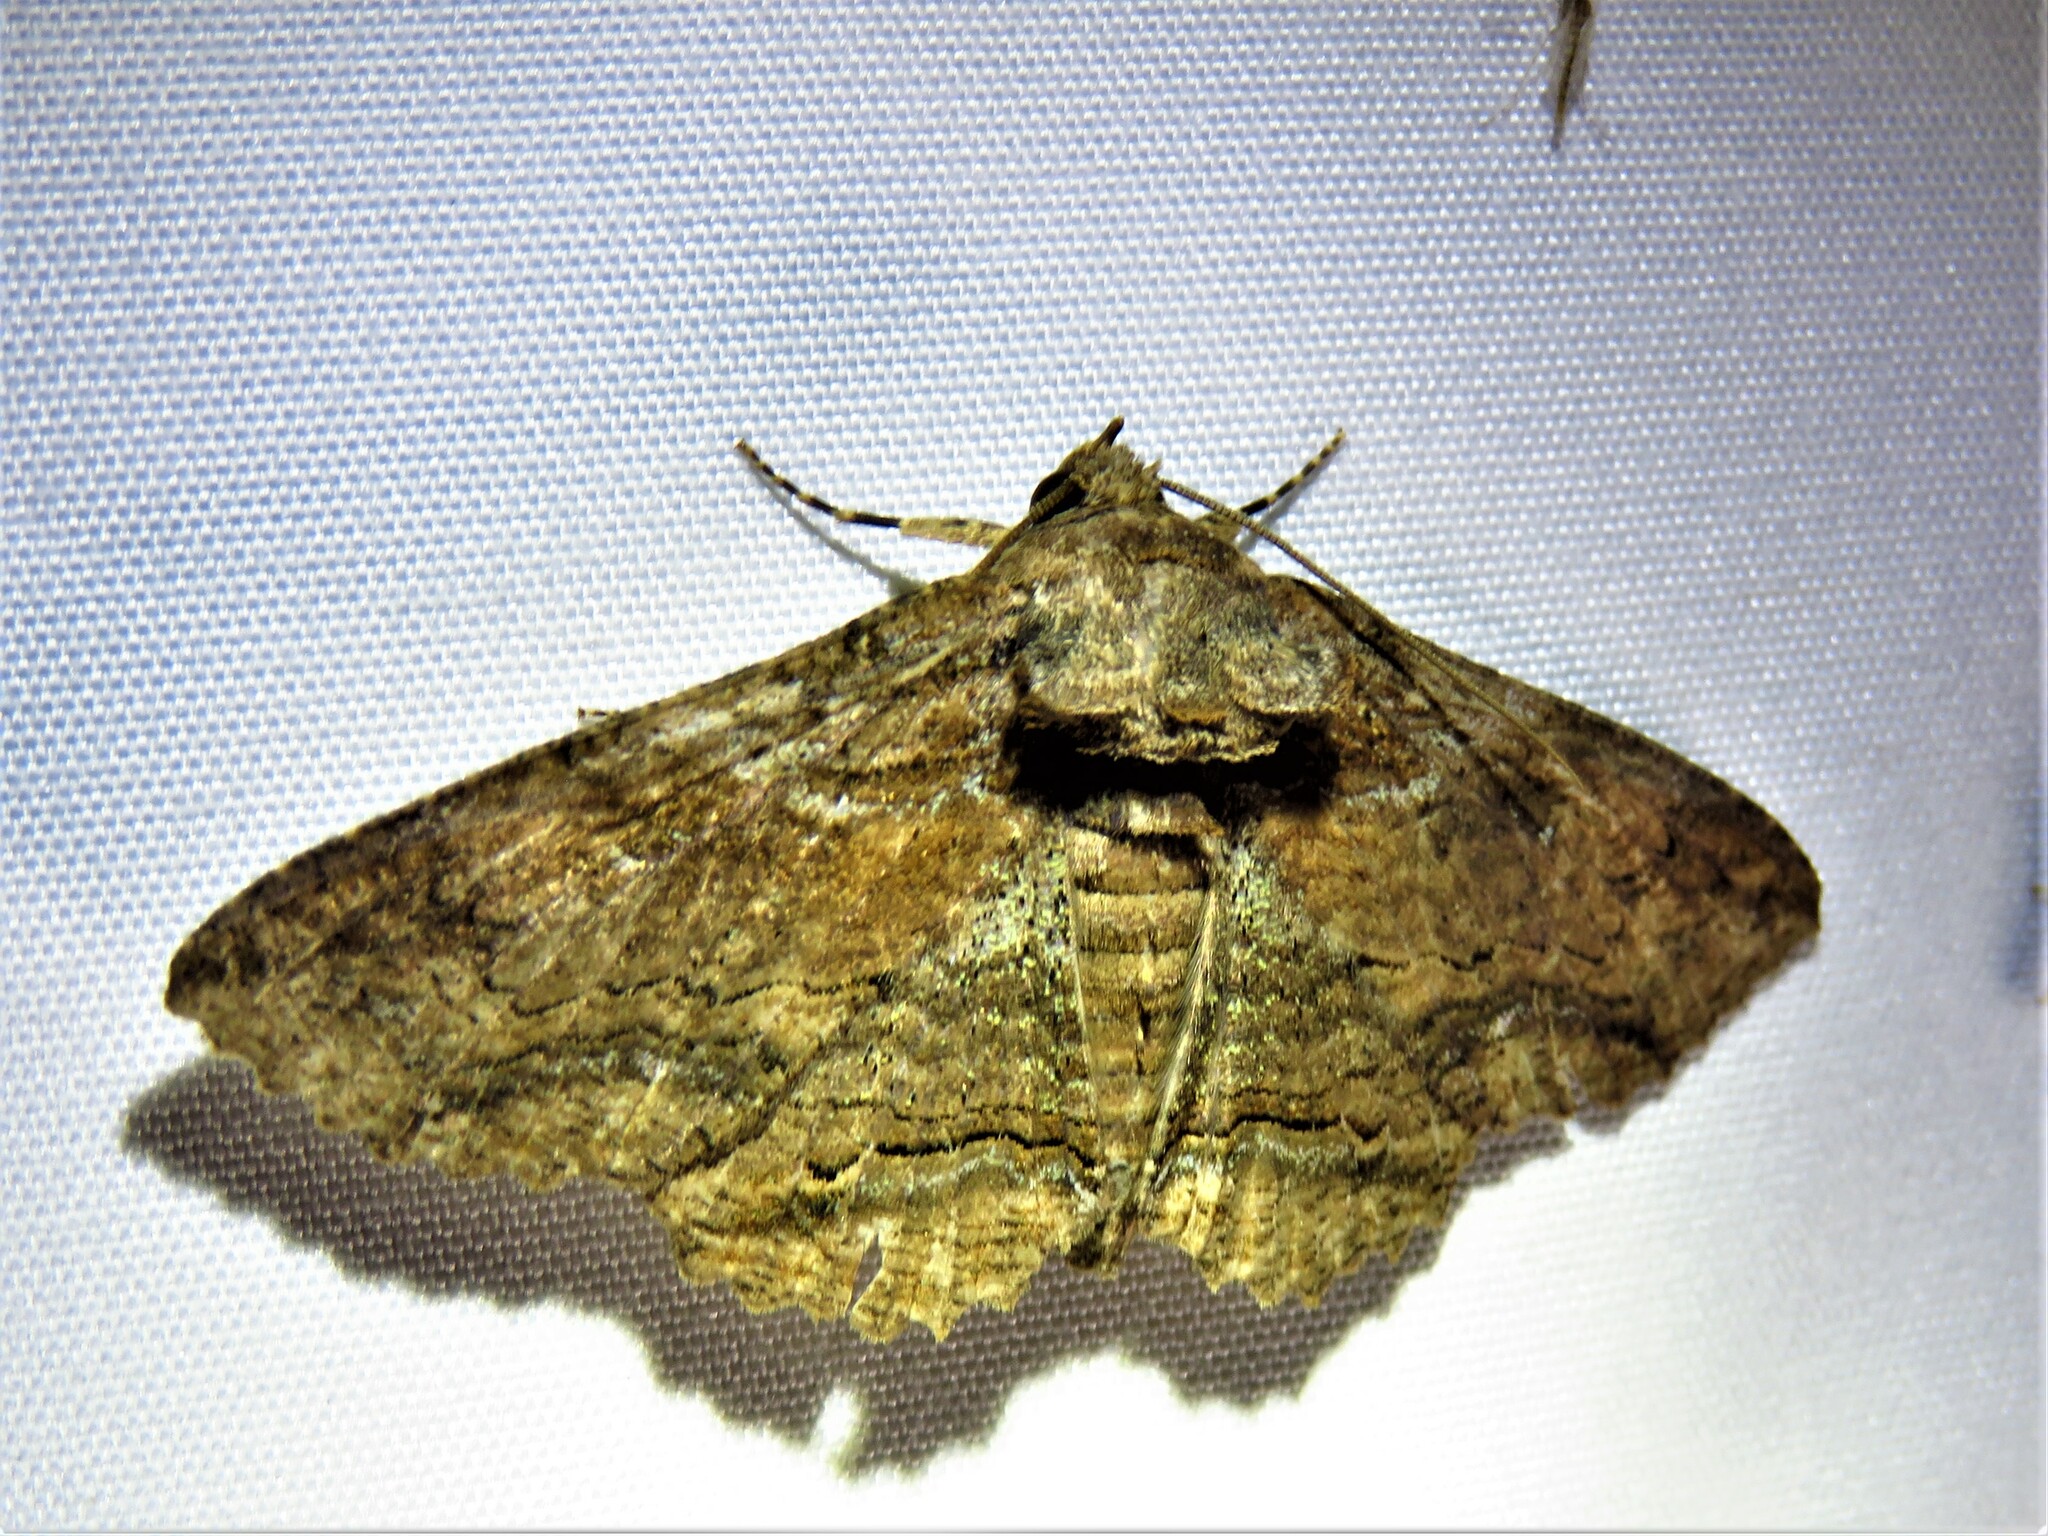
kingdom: Animalia
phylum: Arthropoda
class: Insecta
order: Lepidoptera
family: Erebidae
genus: Zale
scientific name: Zale lunata
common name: Lunate zale moth
